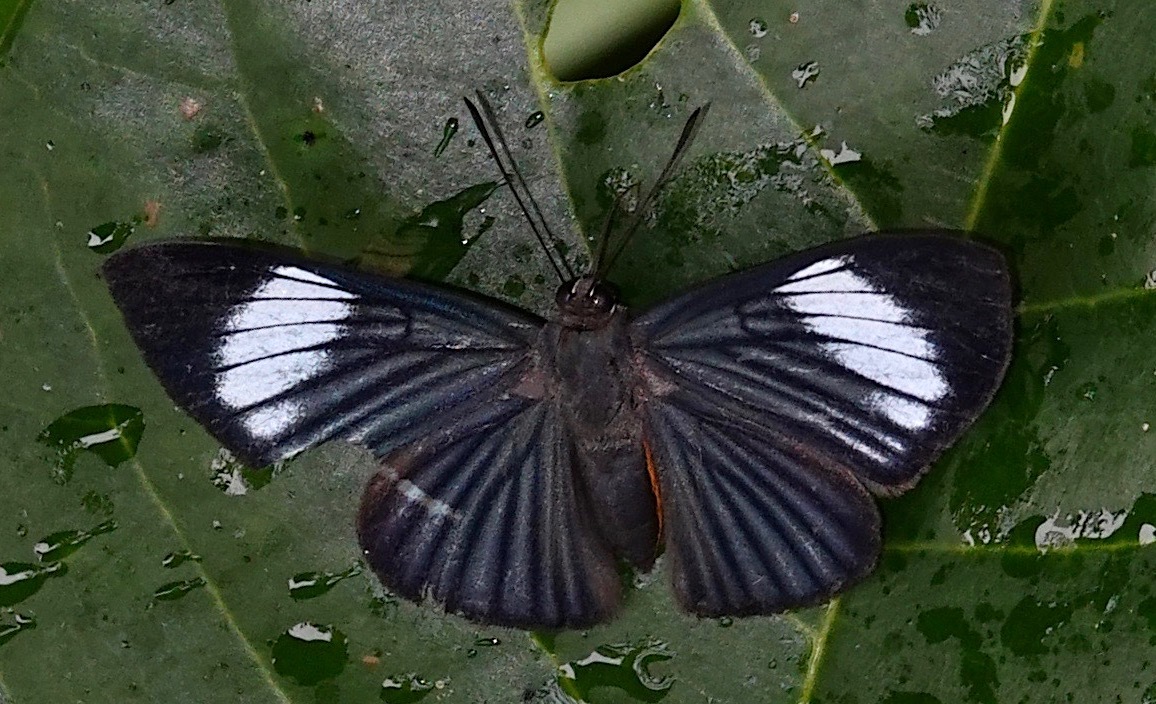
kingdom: Animalia
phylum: Arthropoda
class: Insecta
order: Lepidoptera
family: Riodinidae
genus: Brachyglenis
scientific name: Brachyglenis esthema
